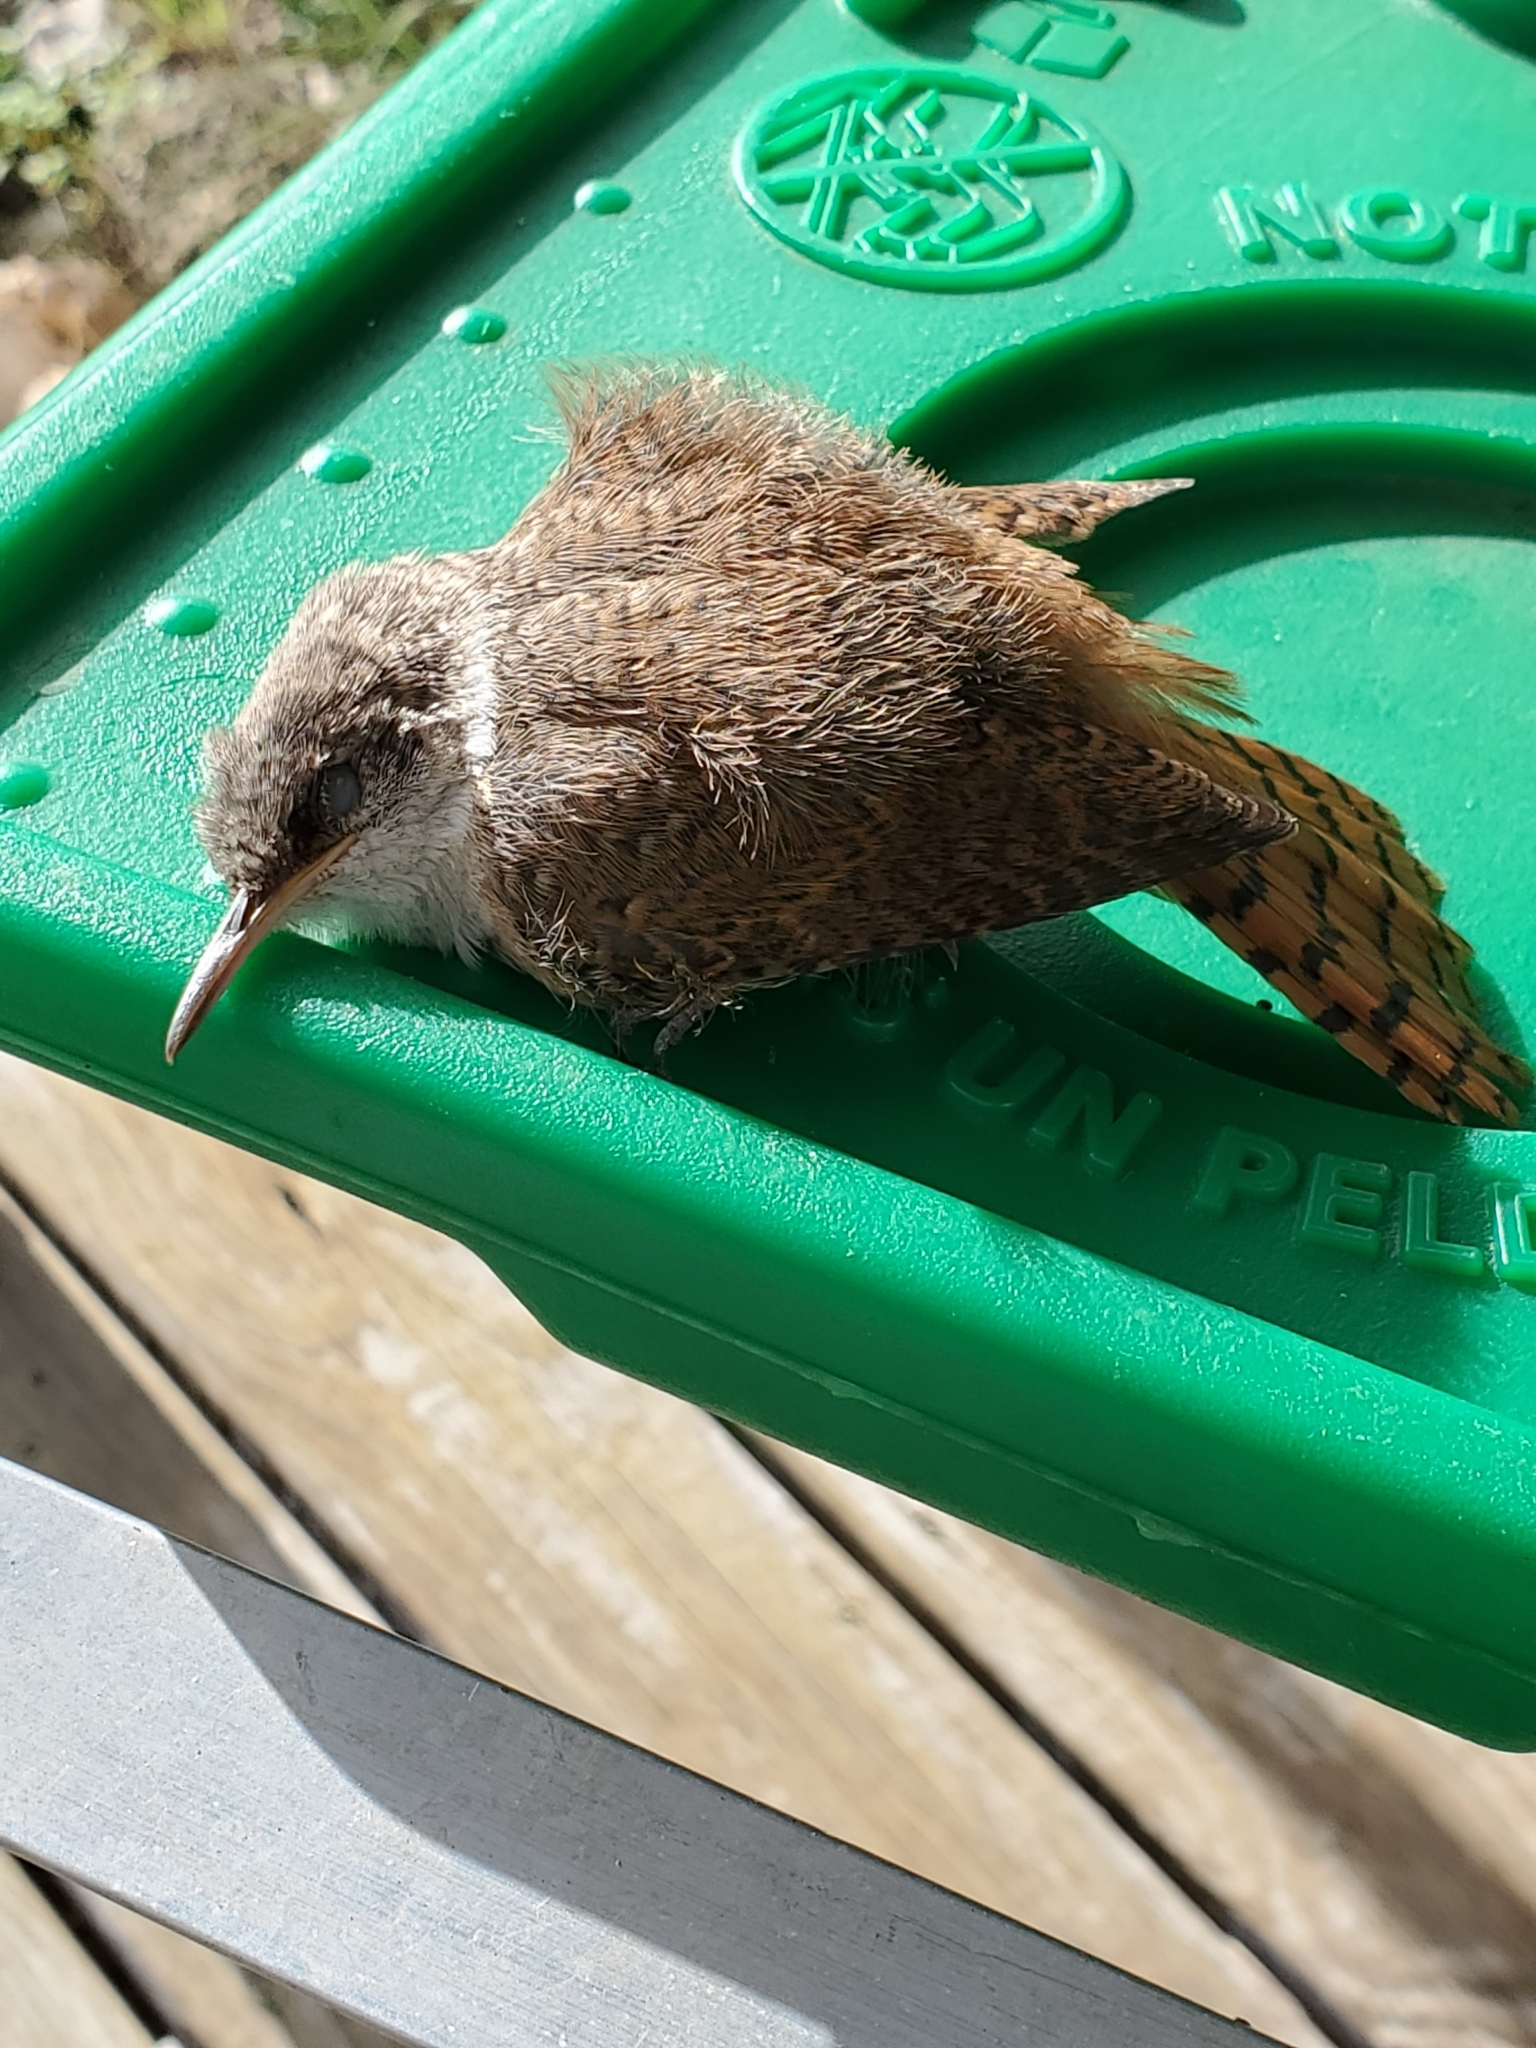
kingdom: Animalia
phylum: Chordata
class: Aves
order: Passeriformes
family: Troglodytidae
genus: Catherpes
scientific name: Catherpes mexicanus
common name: Canyon wren
